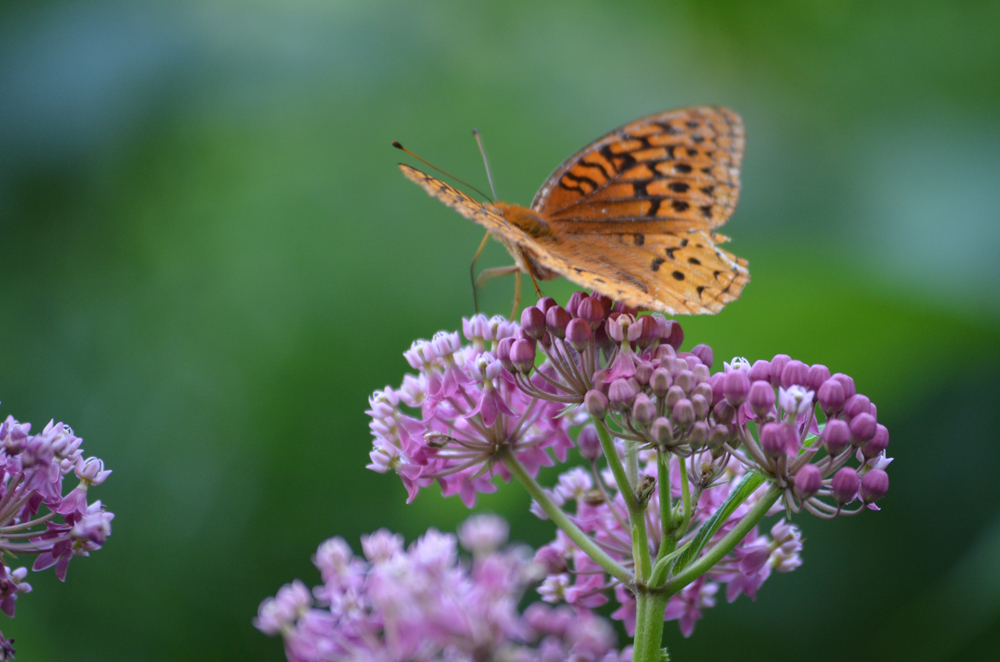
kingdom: Animalia
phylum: Arthropoda
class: Insecta
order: Lepidoptera
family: Nymphalidae
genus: Speyeria
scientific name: Speyeria cybele
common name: Great spangled fritillary
